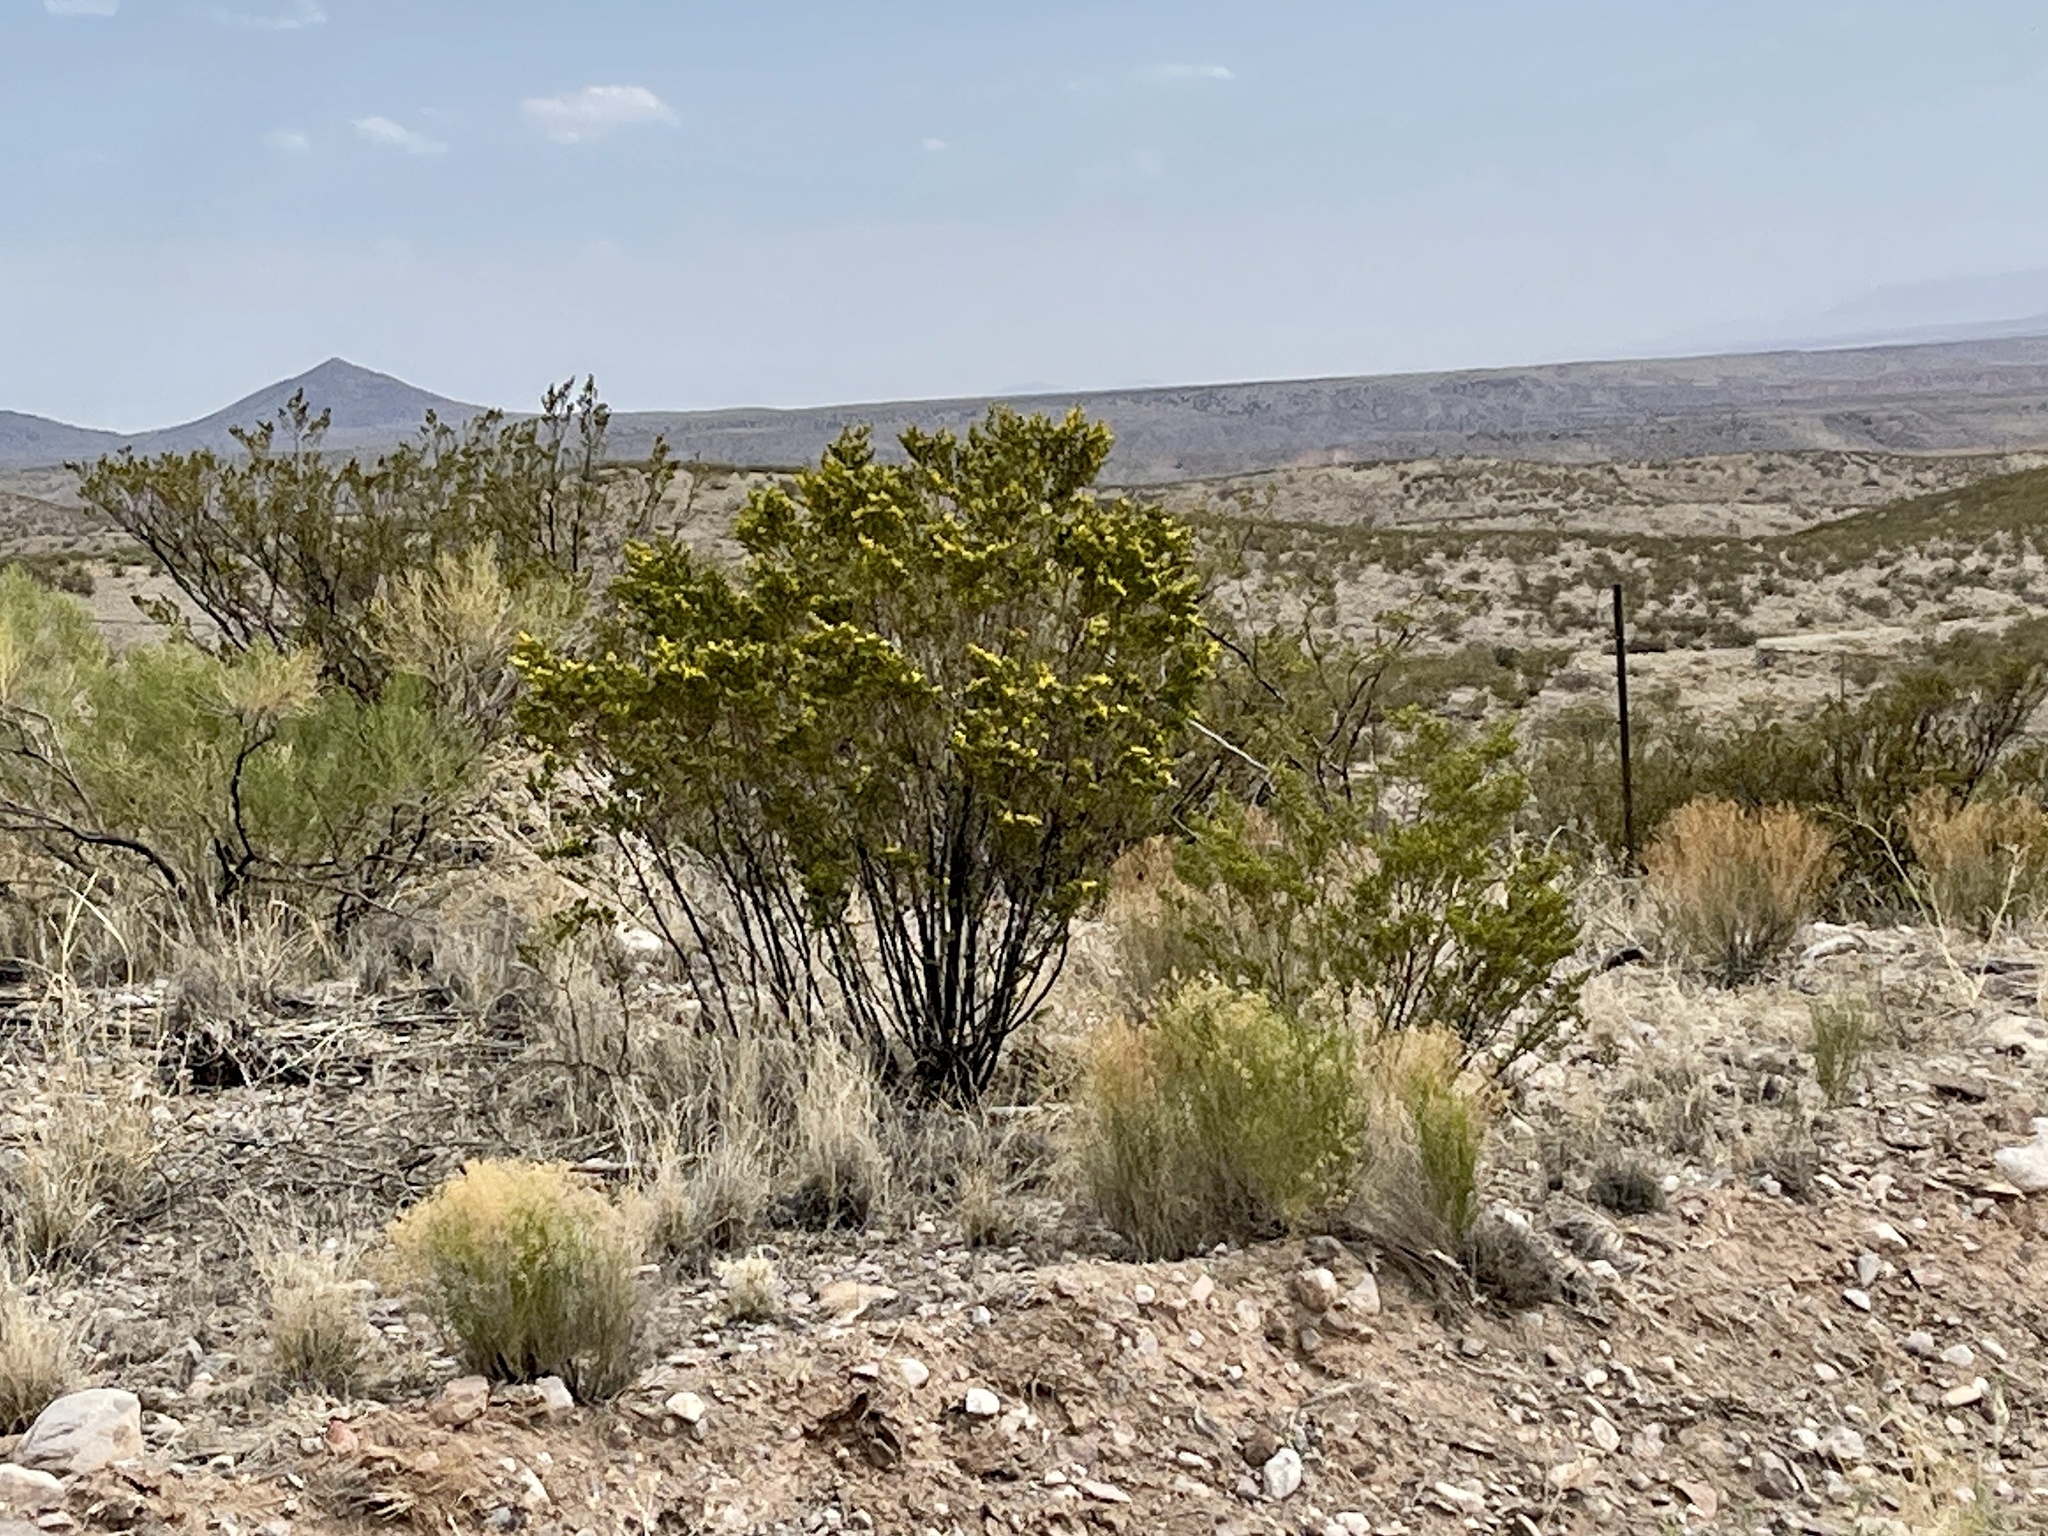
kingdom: Plantae
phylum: Tracheophyta
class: Magnoliopsida
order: Zygophyllales
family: Zygophyllaceae
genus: Larrea
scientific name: Larrea tridentata
